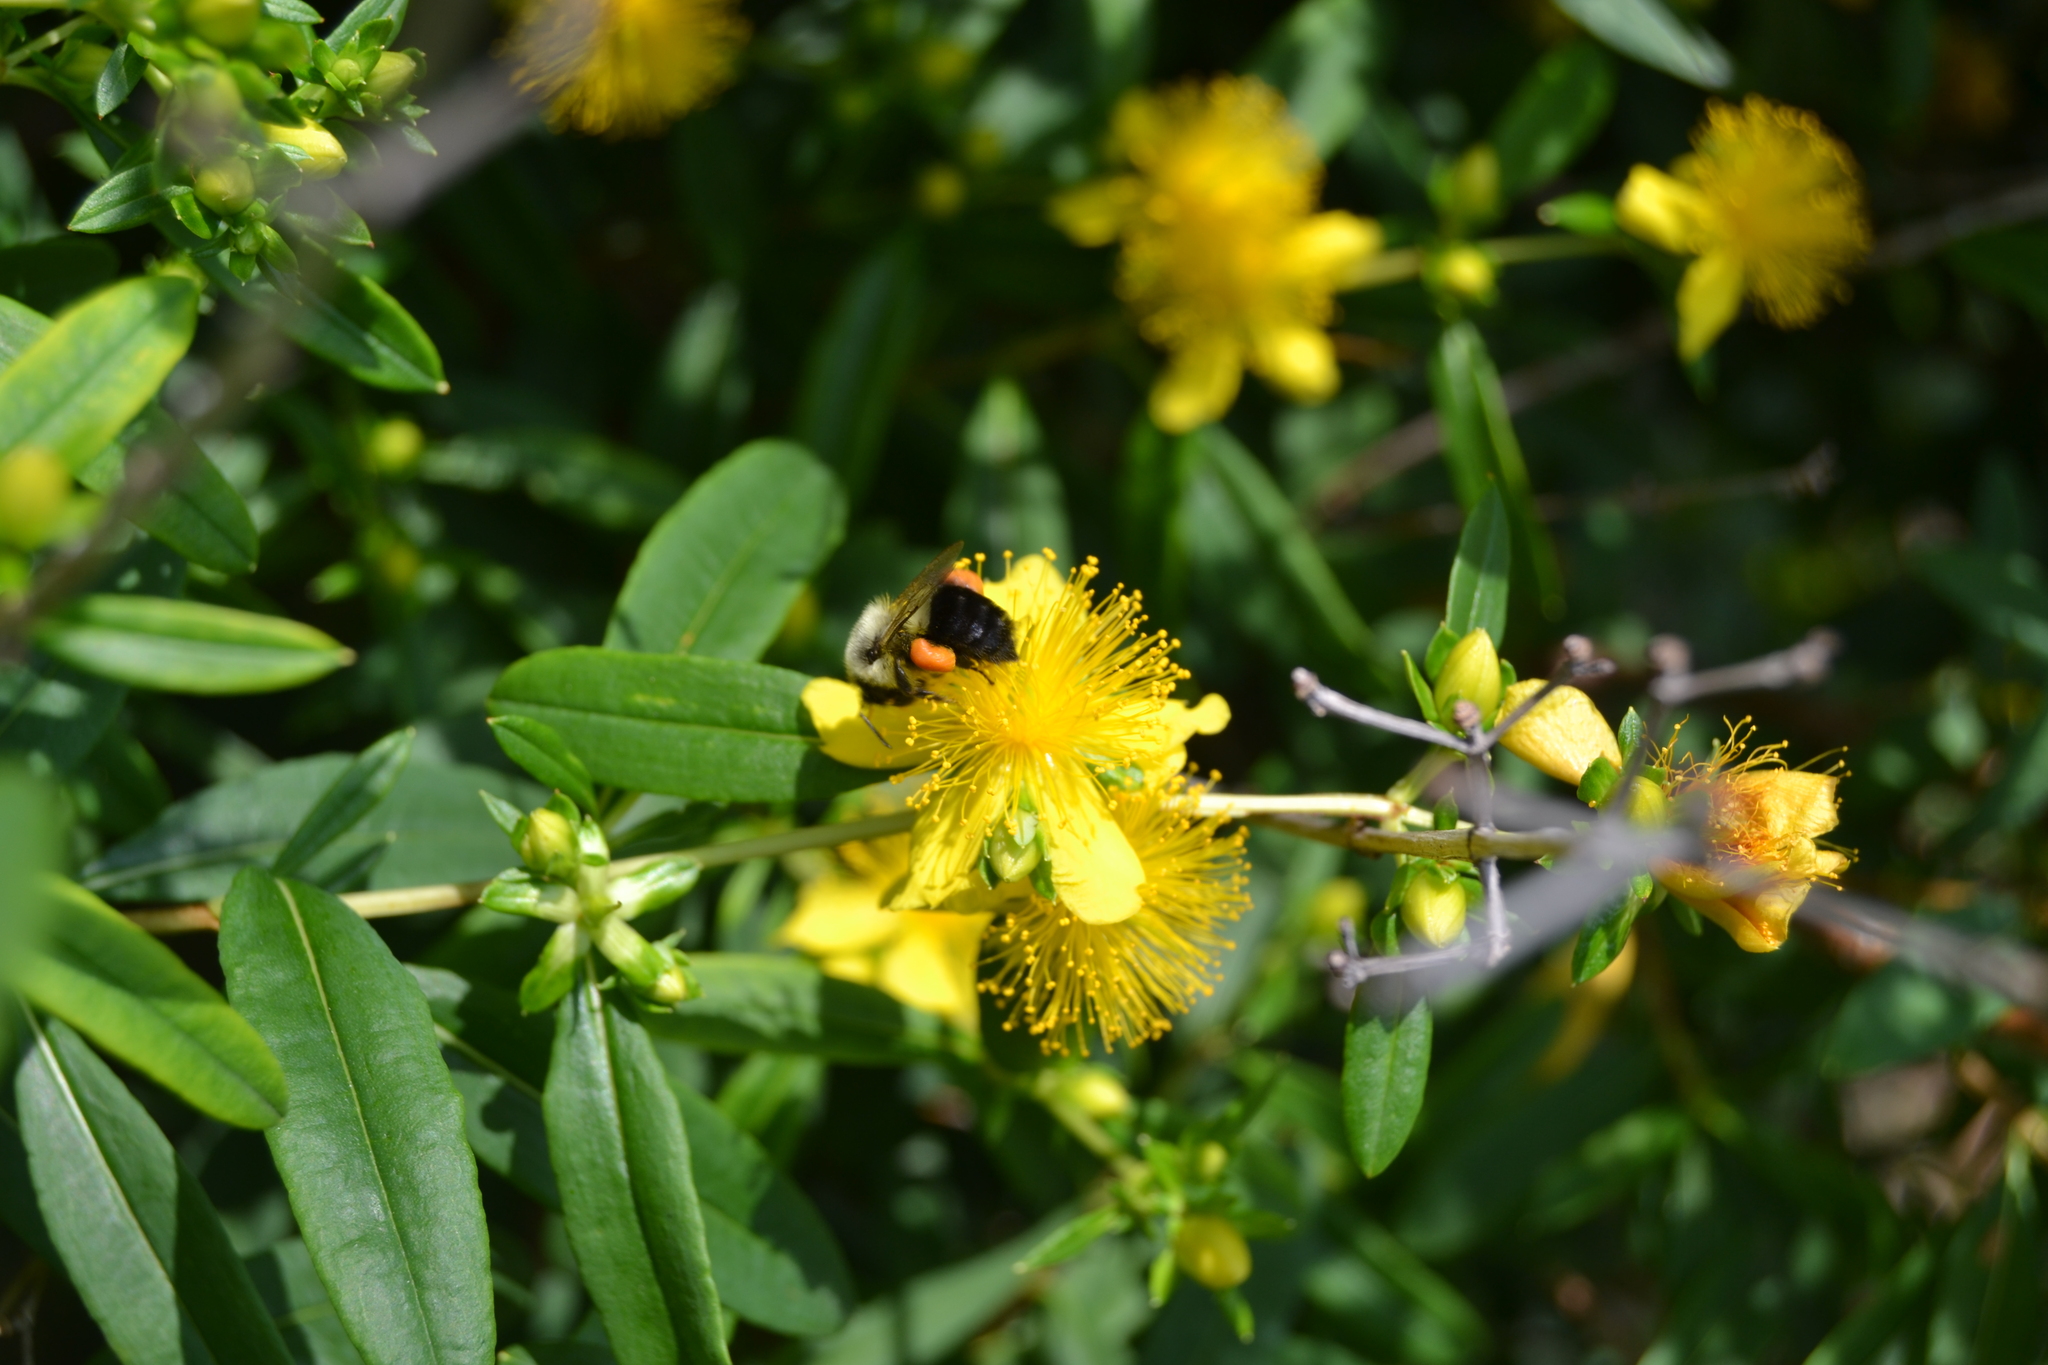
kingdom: Animalia
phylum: Arthropoda
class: Insecta
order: Hymenoptera
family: Apidae
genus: Bombus
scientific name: Bombus impatiens
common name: Common eastern bumble bee
